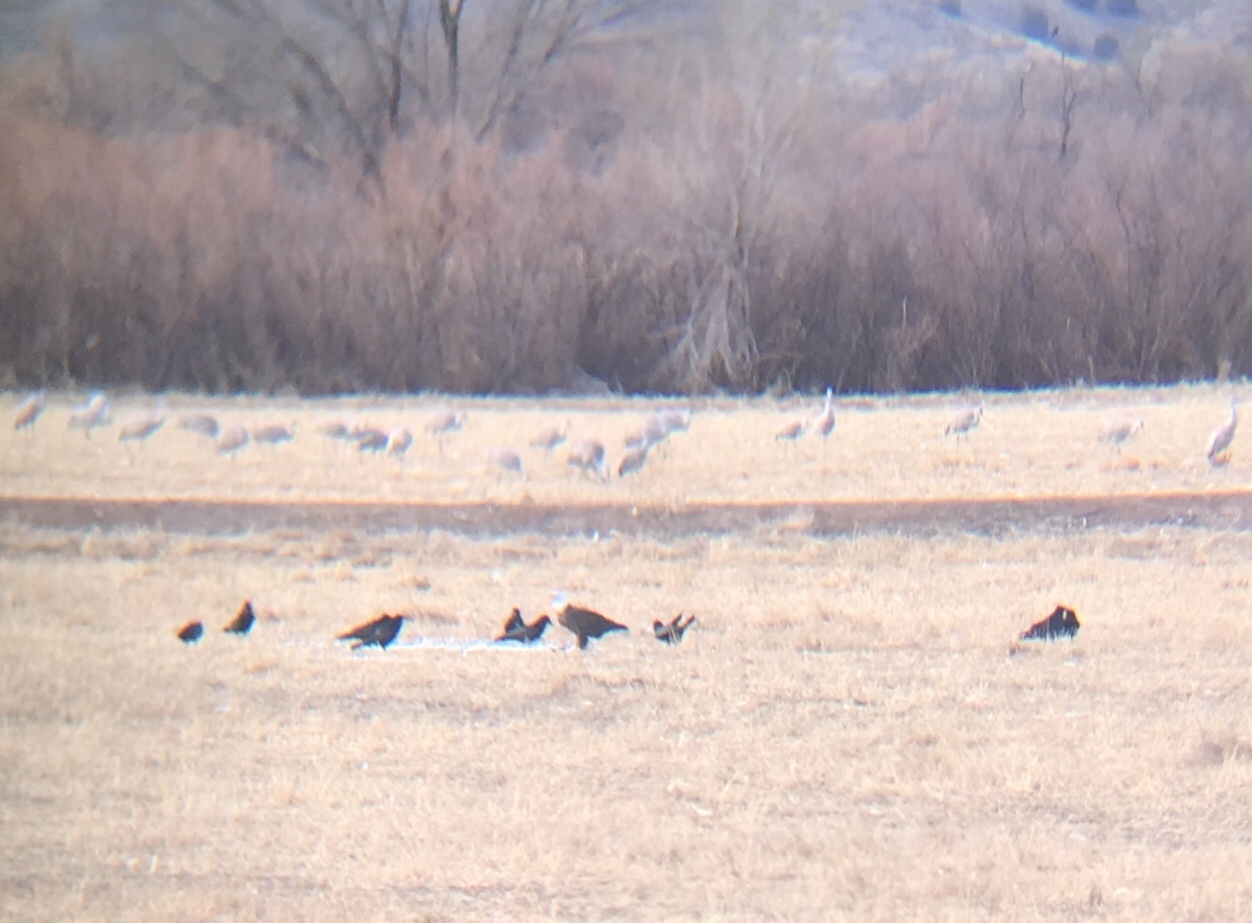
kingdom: Animalia
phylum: Chordata
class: Aves
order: Accipitriformes
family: Accipitridae
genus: Haliaeetus
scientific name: Haliaeetus leucocephalus
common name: Bald eagle
